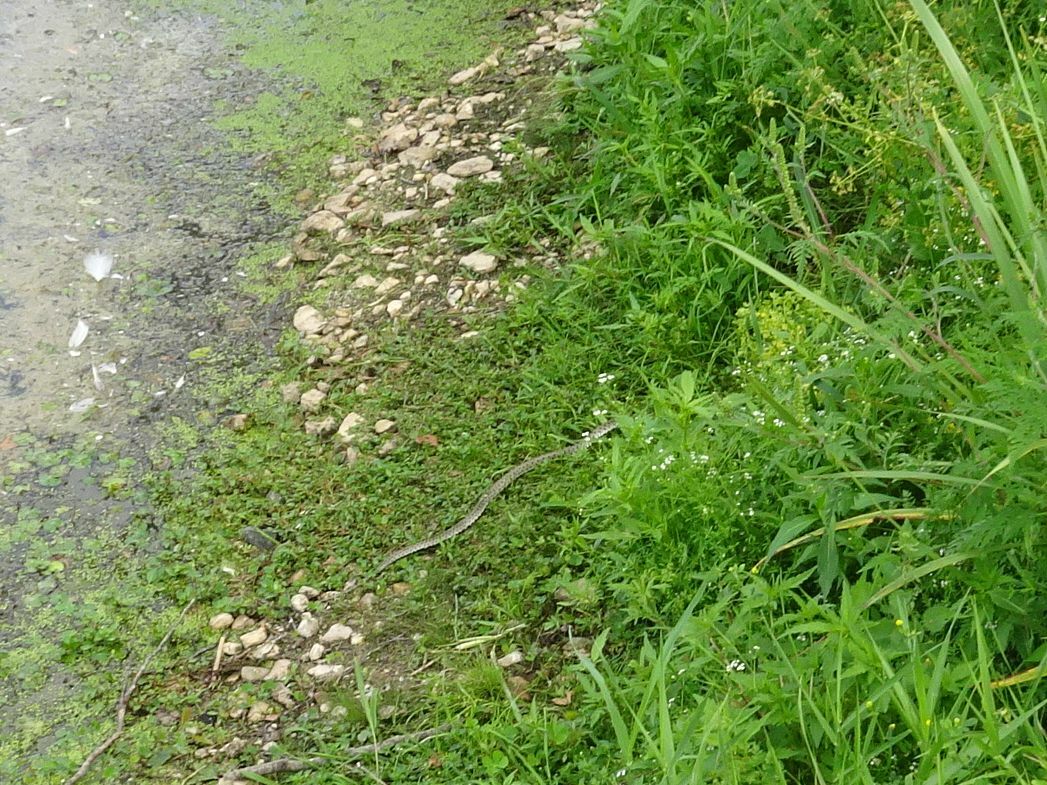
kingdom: Animalia
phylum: Chordata
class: Squamata
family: Colubridae
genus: Natrix
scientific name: Natrix helvetica
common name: Banded grass snake
